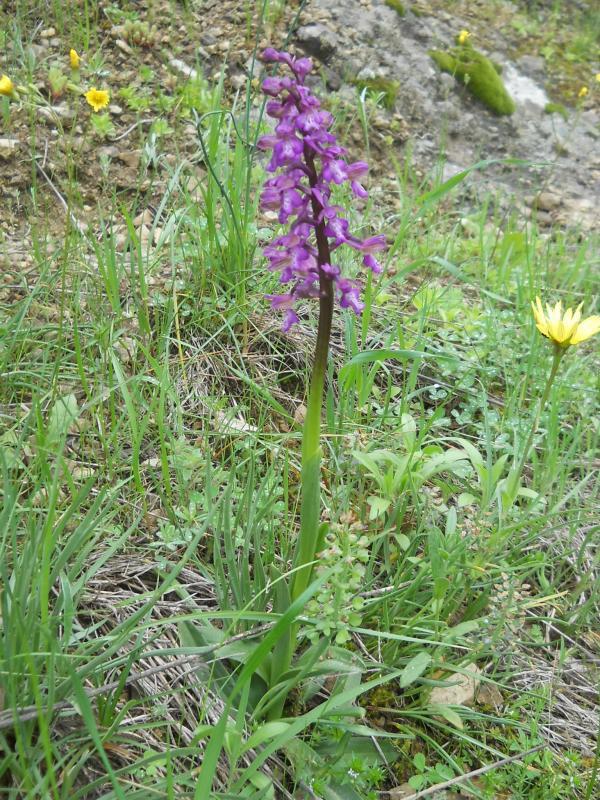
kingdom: Plantae
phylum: Tracheophyta
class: Liliopsida
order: Asparagales
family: Orchidaceae
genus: Anacamptis
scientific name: Anacamptis morio
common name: Green-winged orchid
